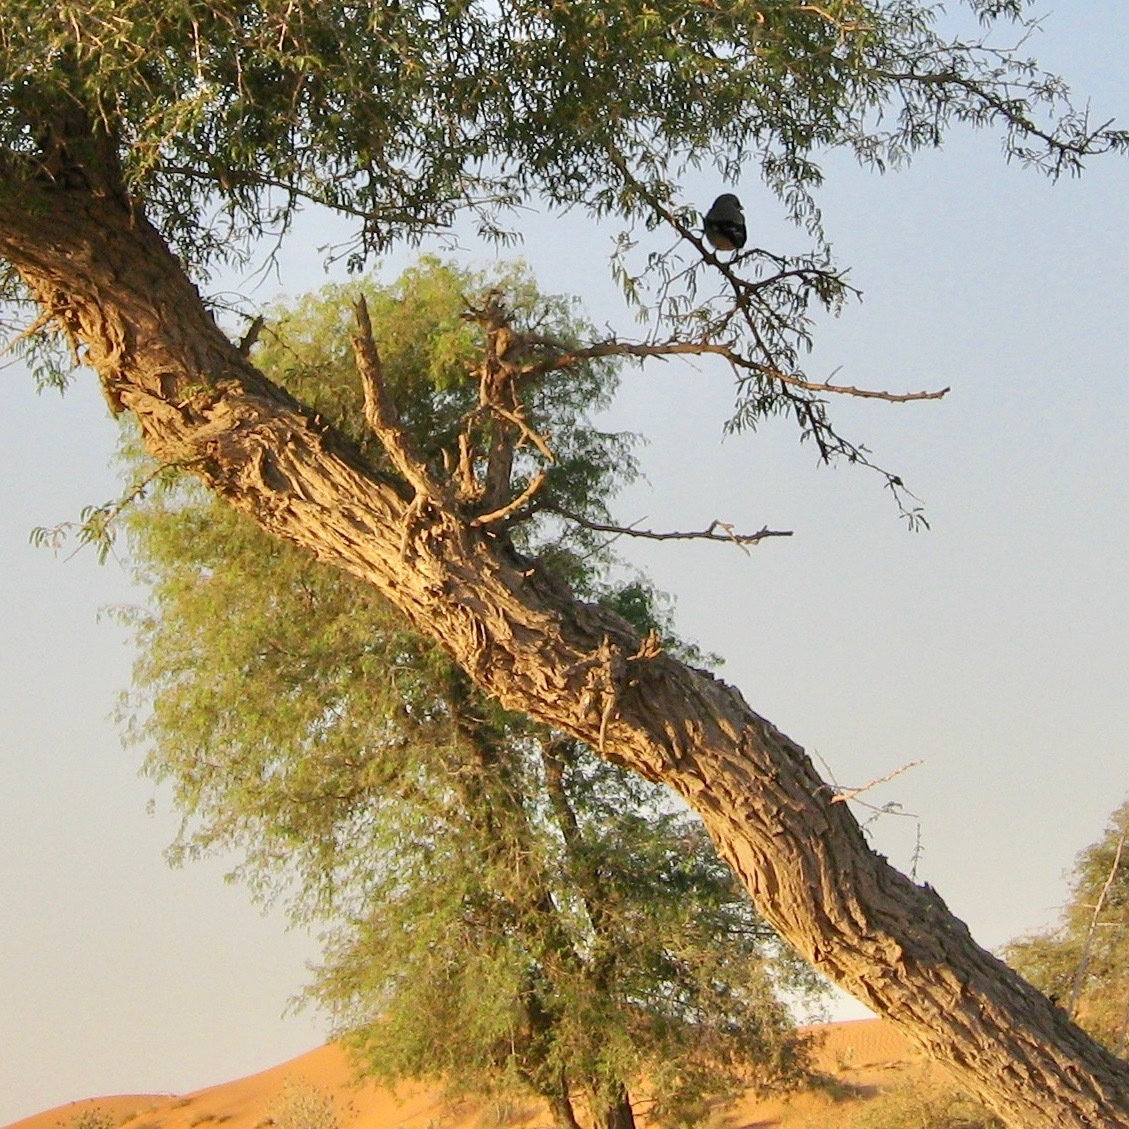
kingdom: Animalia
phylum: Chordata
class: Aves
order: Passeriformes
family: Laniidae
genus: Lanius
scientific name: Lanius excubitor
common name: Great grey shrike
